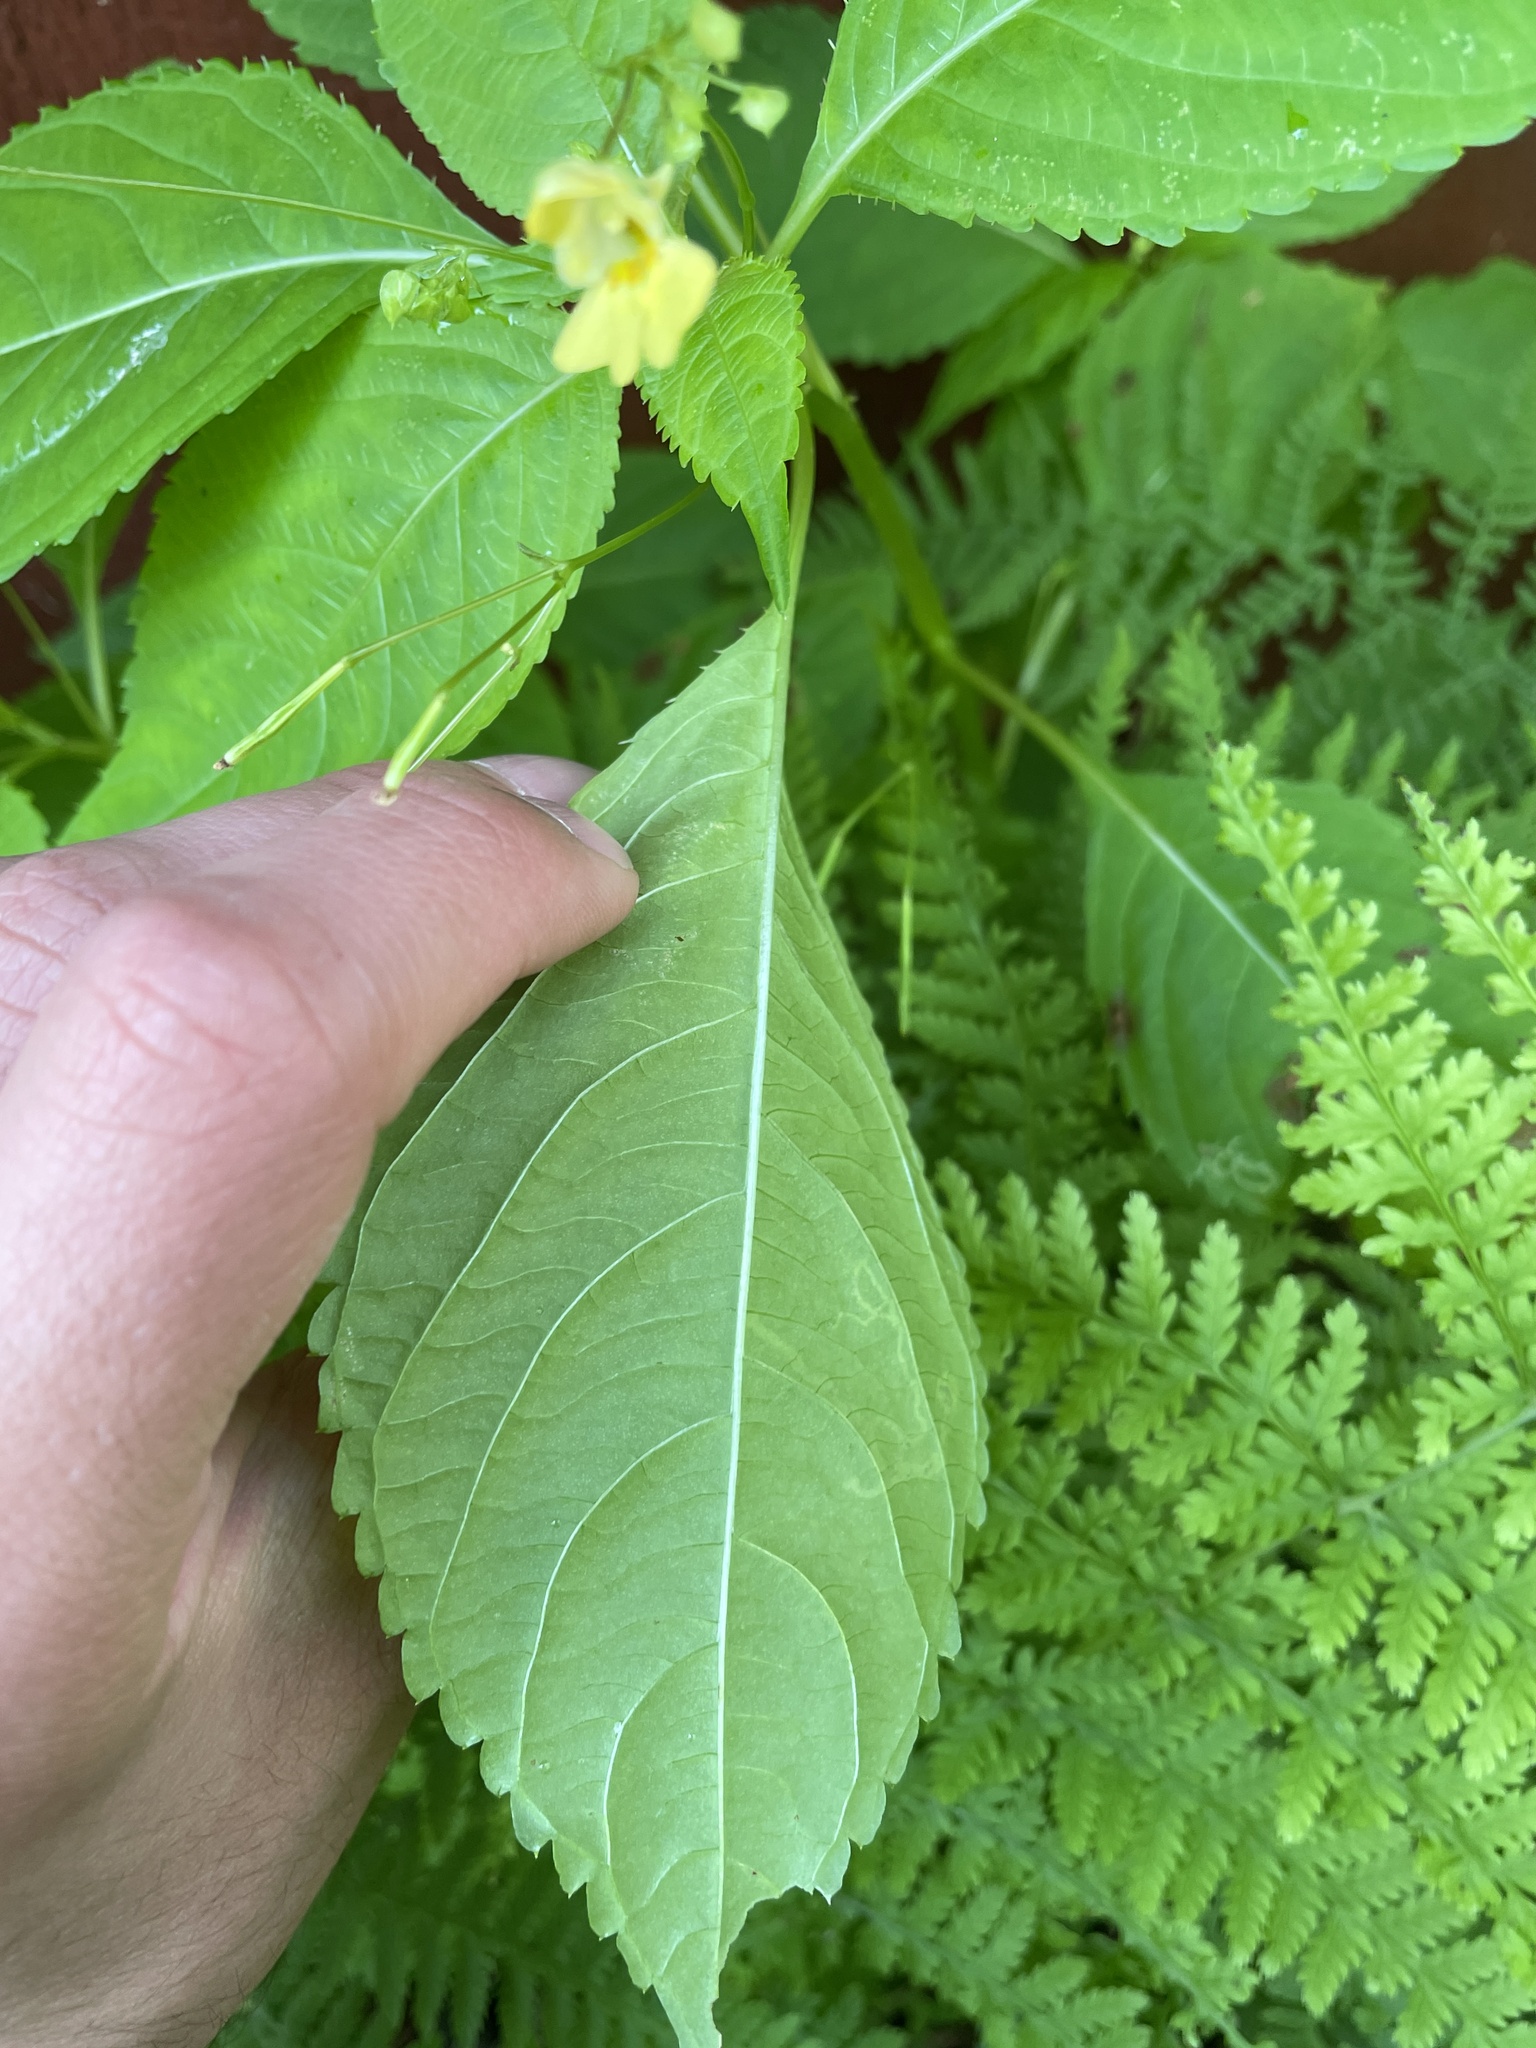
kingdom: Plantae
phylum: Tracheophyta
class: Magnoliopsida
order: Ericales
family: Balsaminaceae
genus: Impatiens
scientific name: Impatiens parviflora
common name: Small balsam
